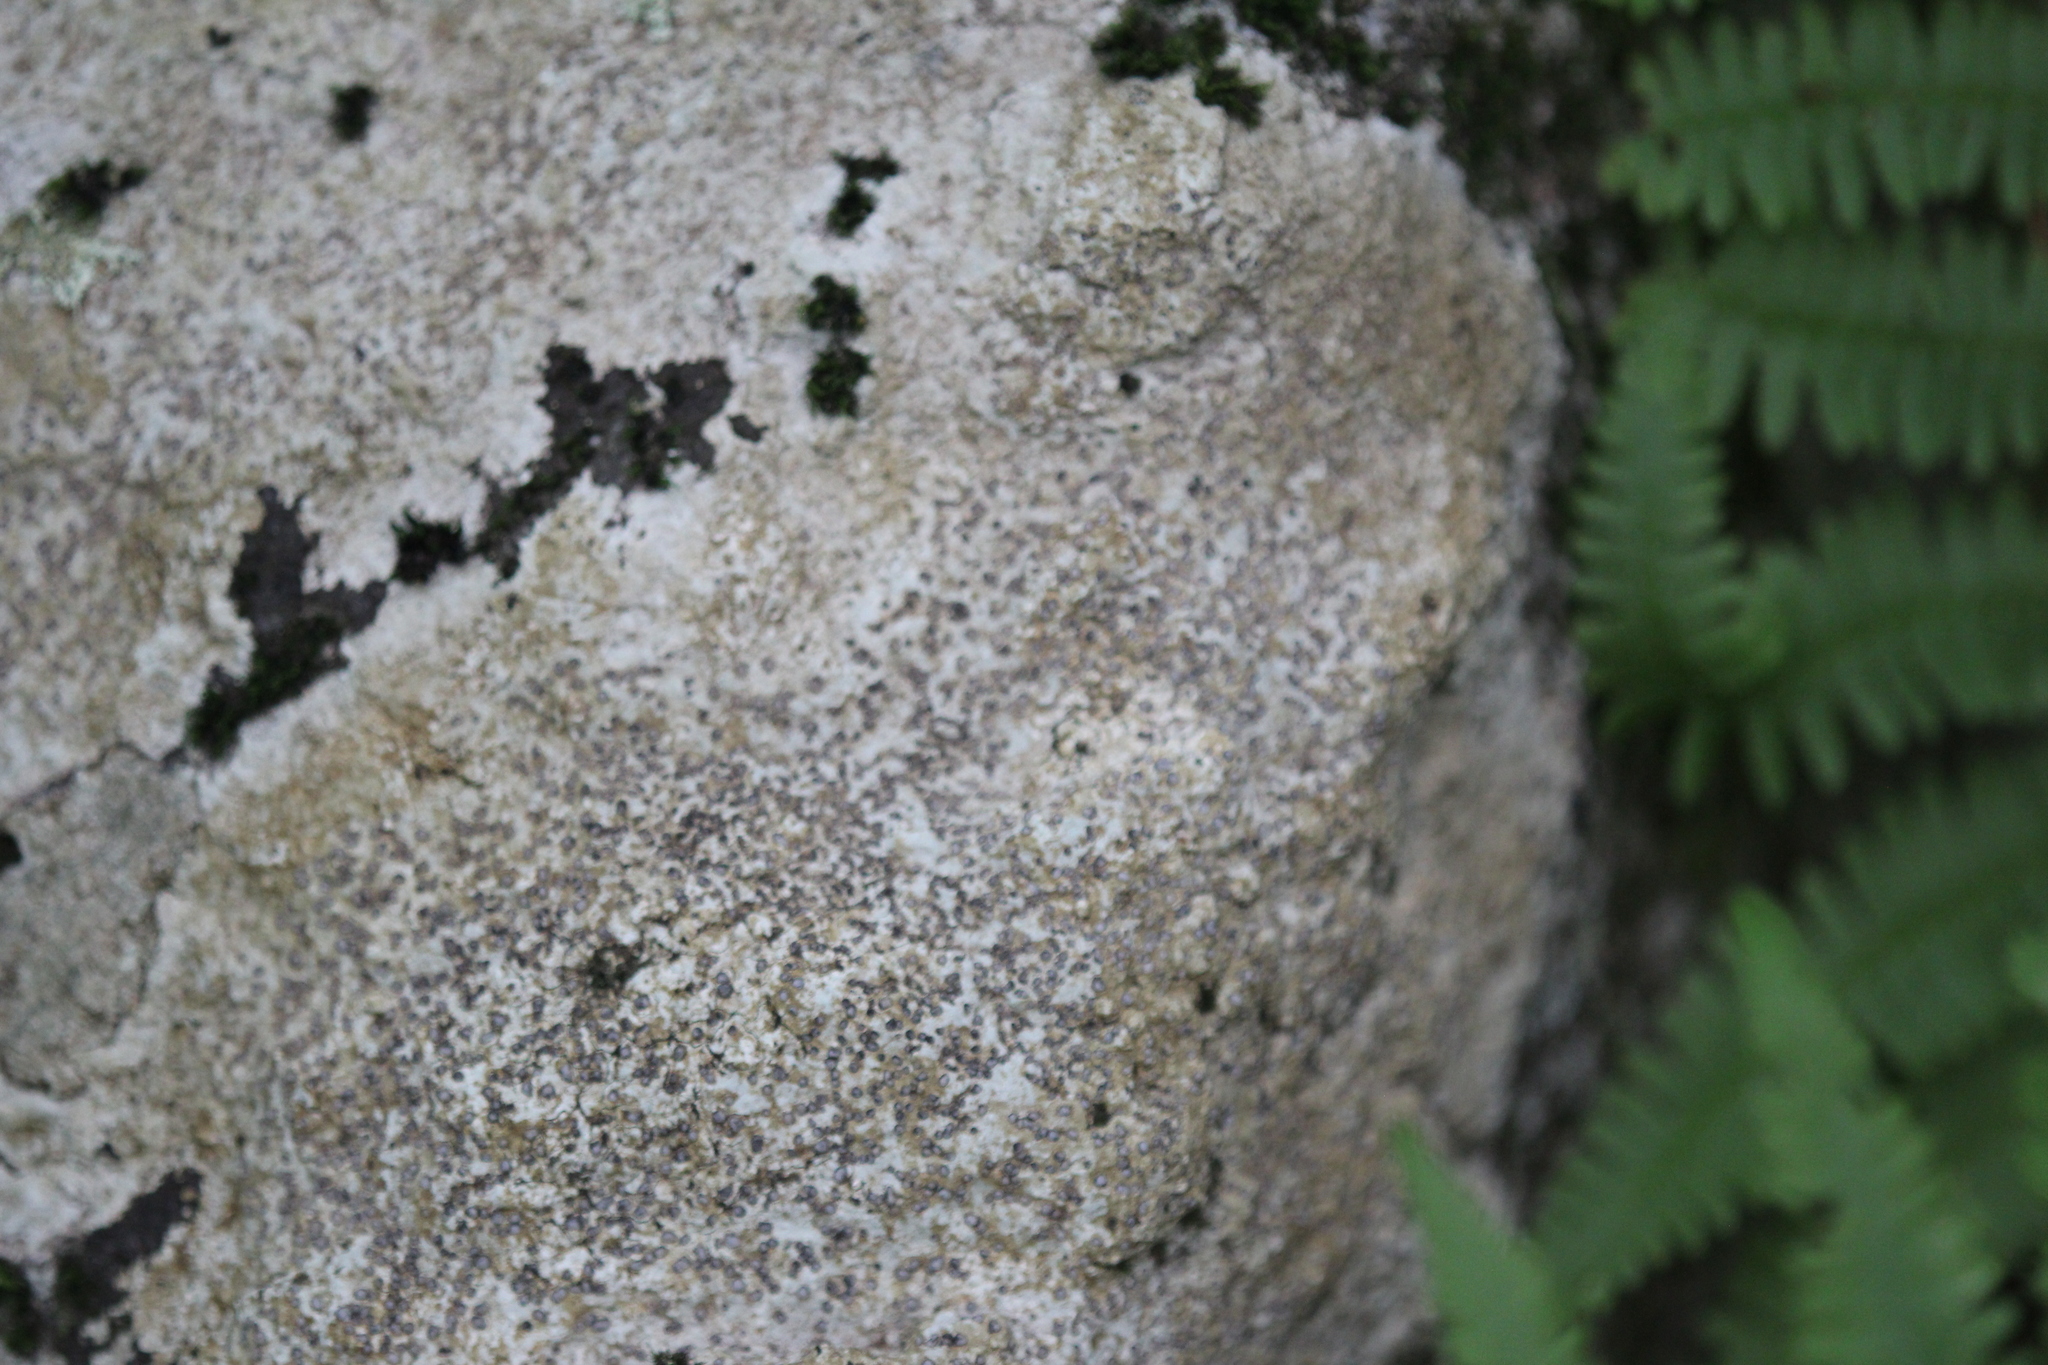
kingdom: Fungi
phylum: Ascomycota
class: Lecanoromycetes
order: Lecideales
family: Lecideaceae
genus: Porpidia
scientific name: Porpidia albocaerulescens
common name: Smokey-eyed boulder lichen
